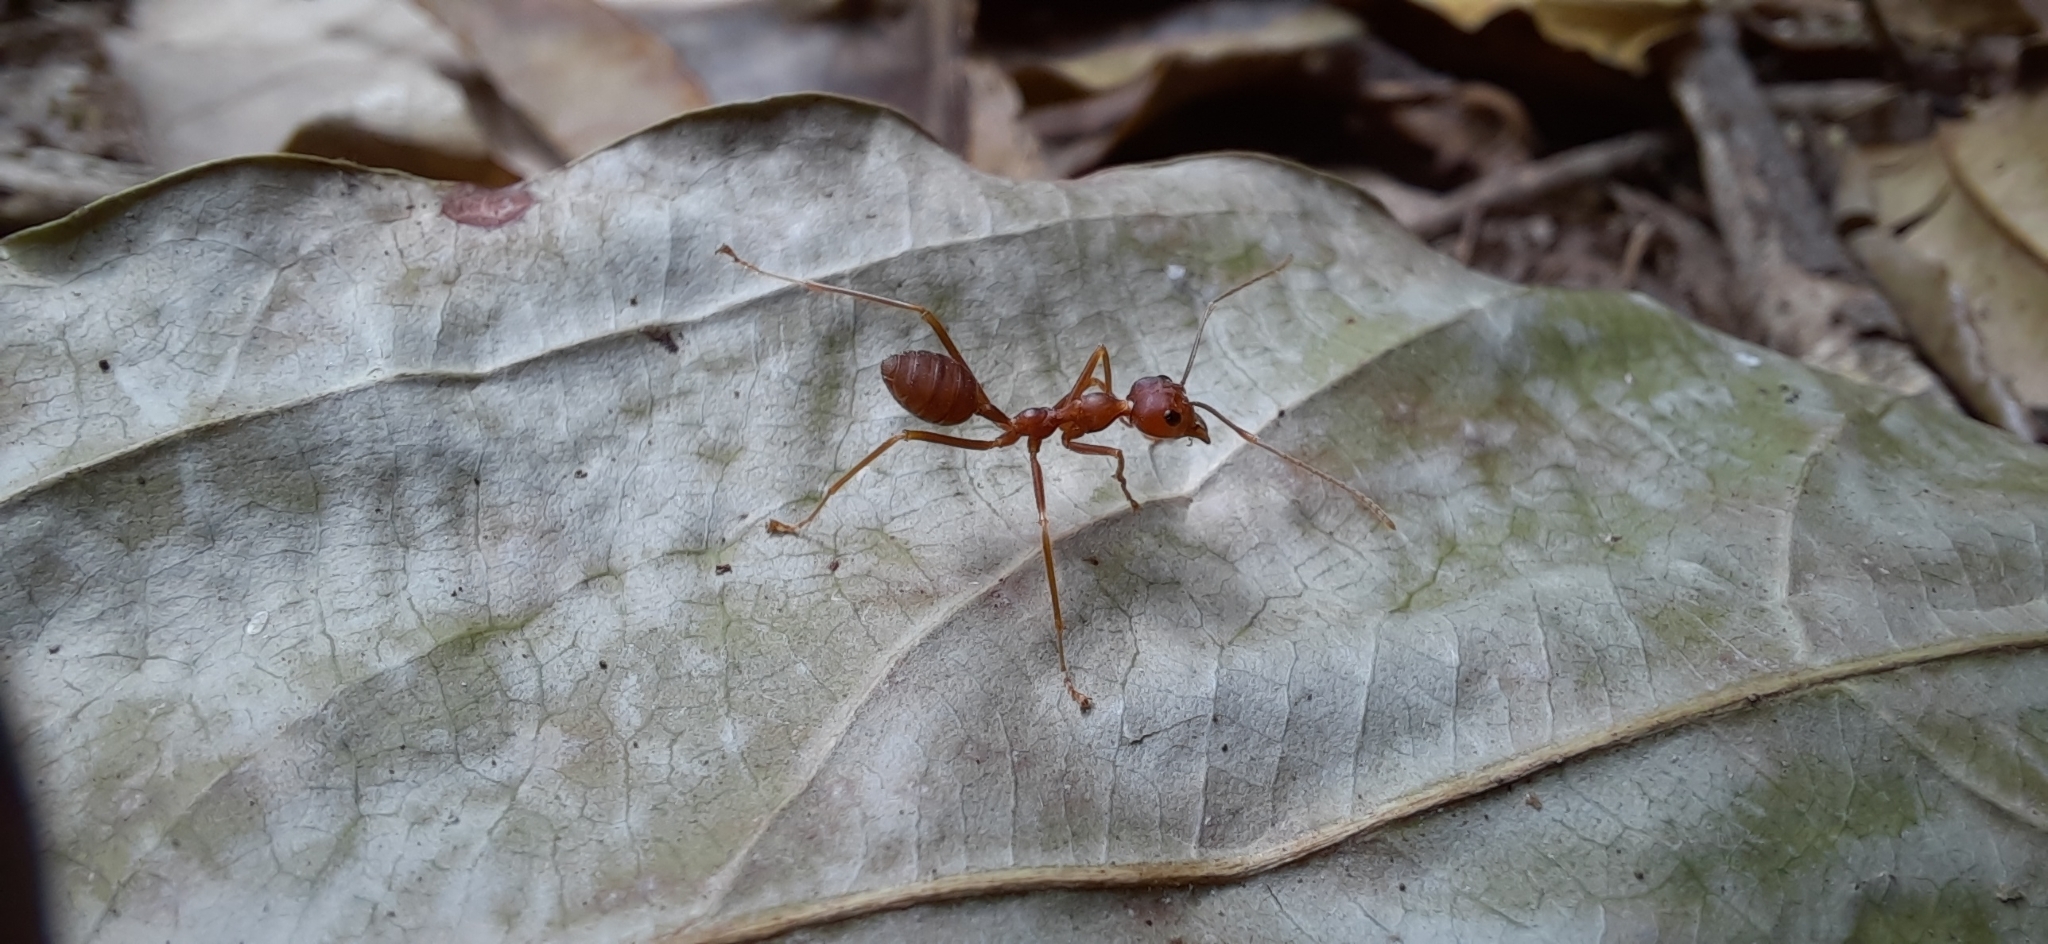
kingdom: Animalia
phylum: Arthropoda
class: Insecta
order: Hymenoptera
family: Formicidae
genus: Oecophylla
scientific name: Oecophylla smaragdina
